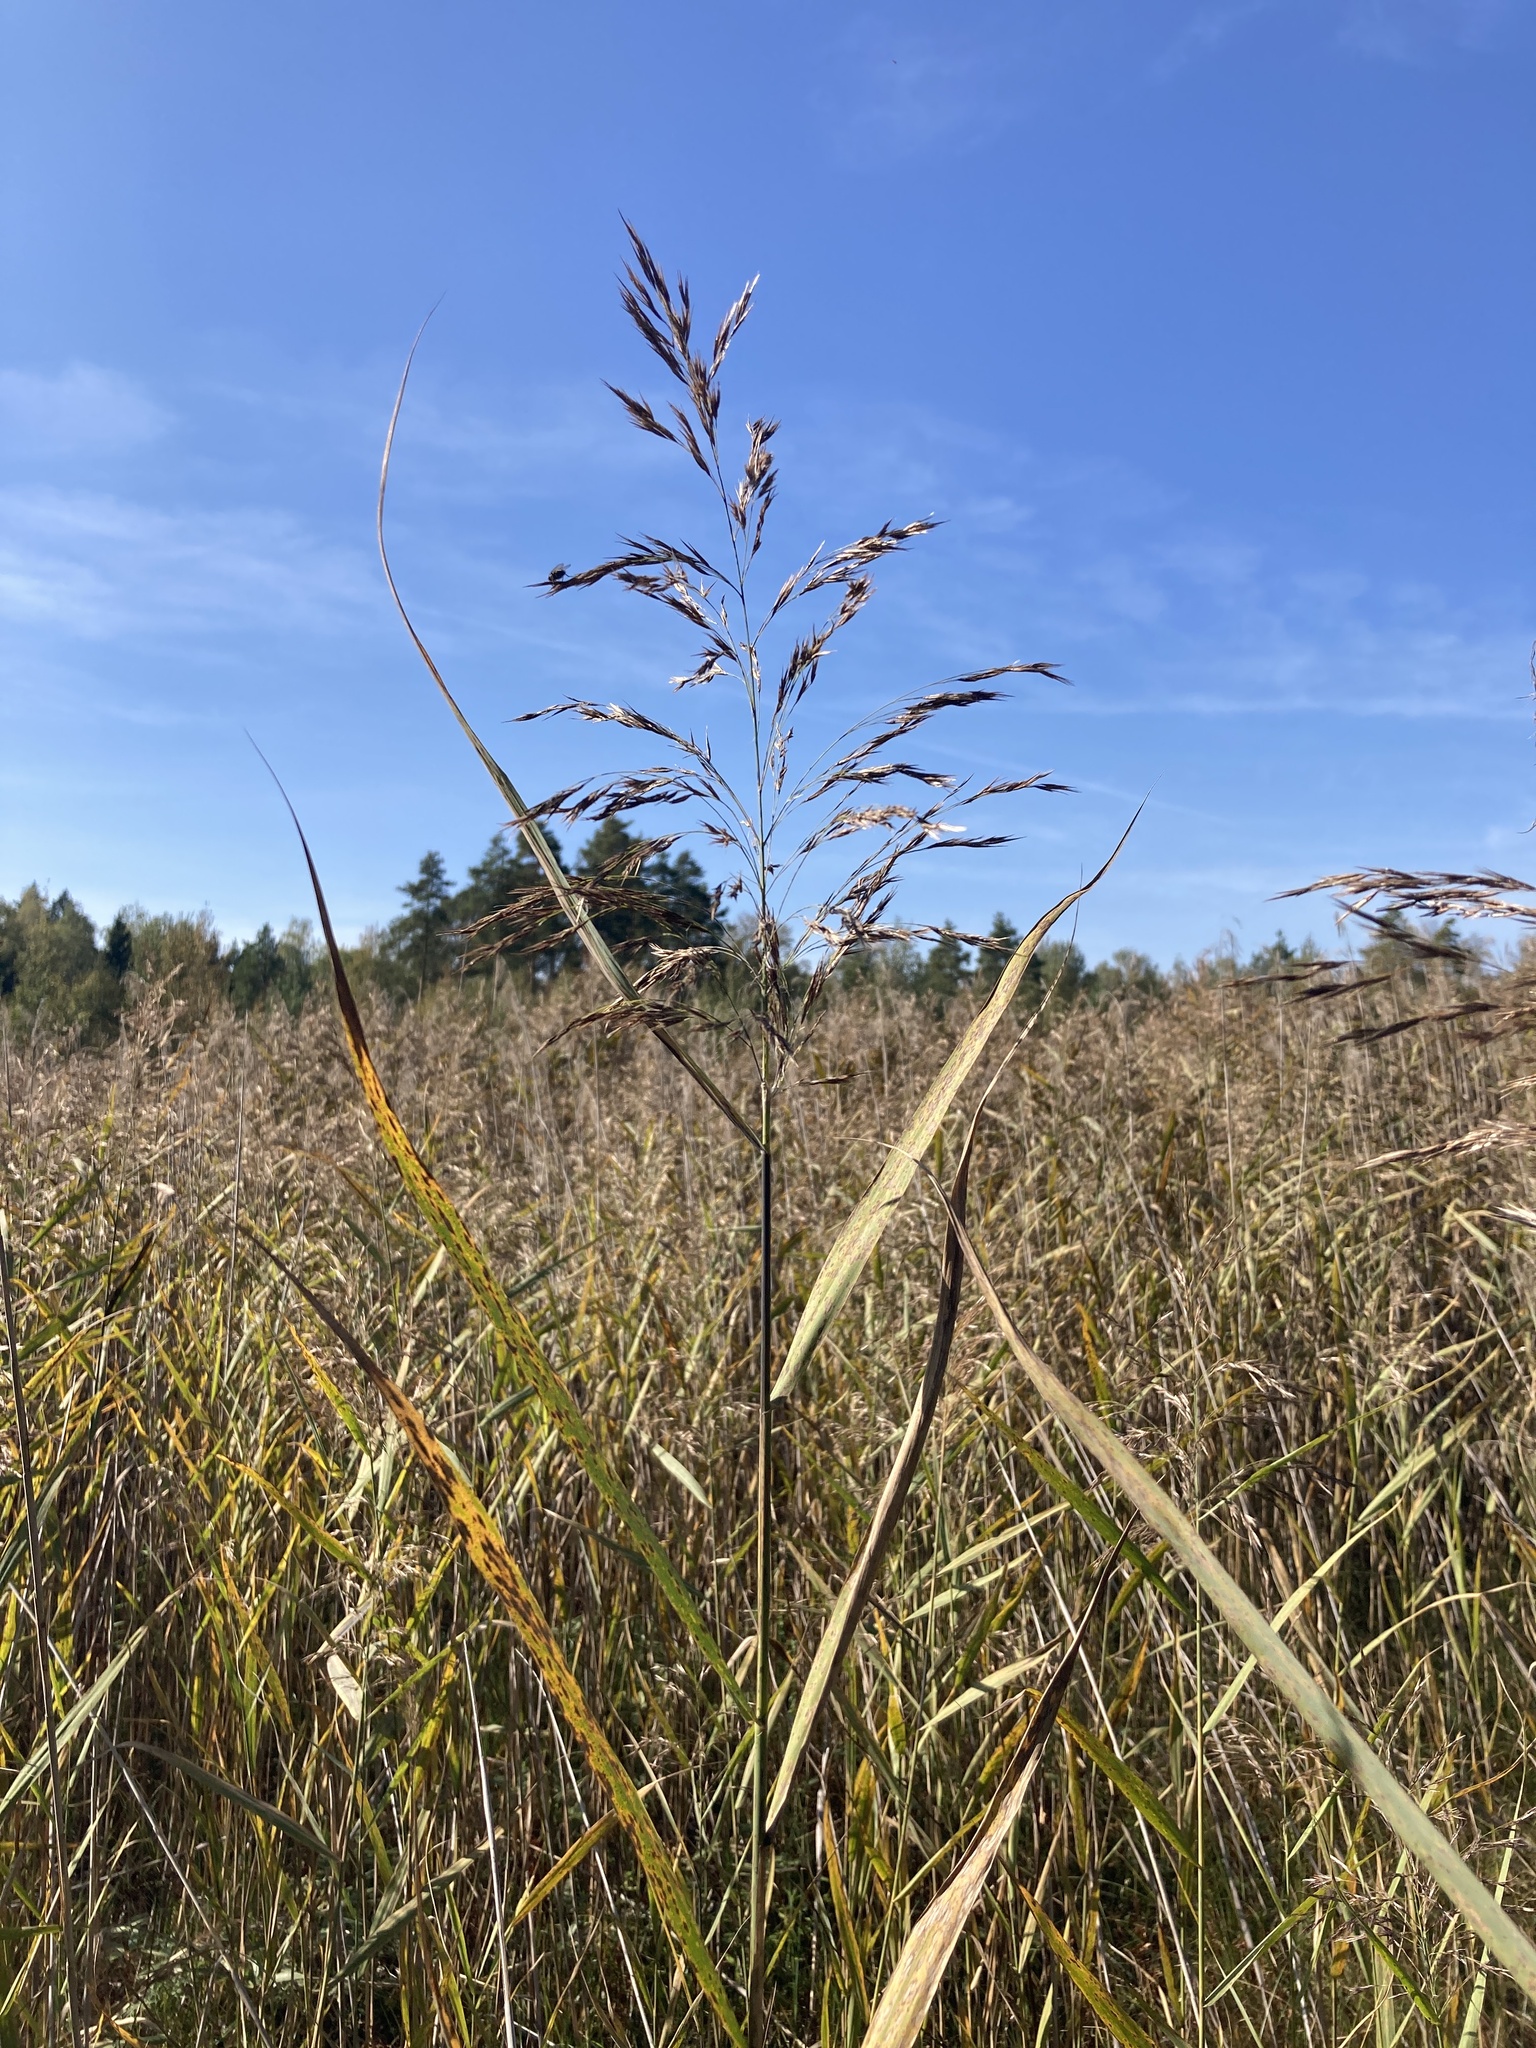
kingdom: Plantae
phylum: Tracheophyta
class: Liliopsida
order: Poales
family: Poaceae
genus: Phragmites
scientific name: Phragmites australis
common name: Common reed
